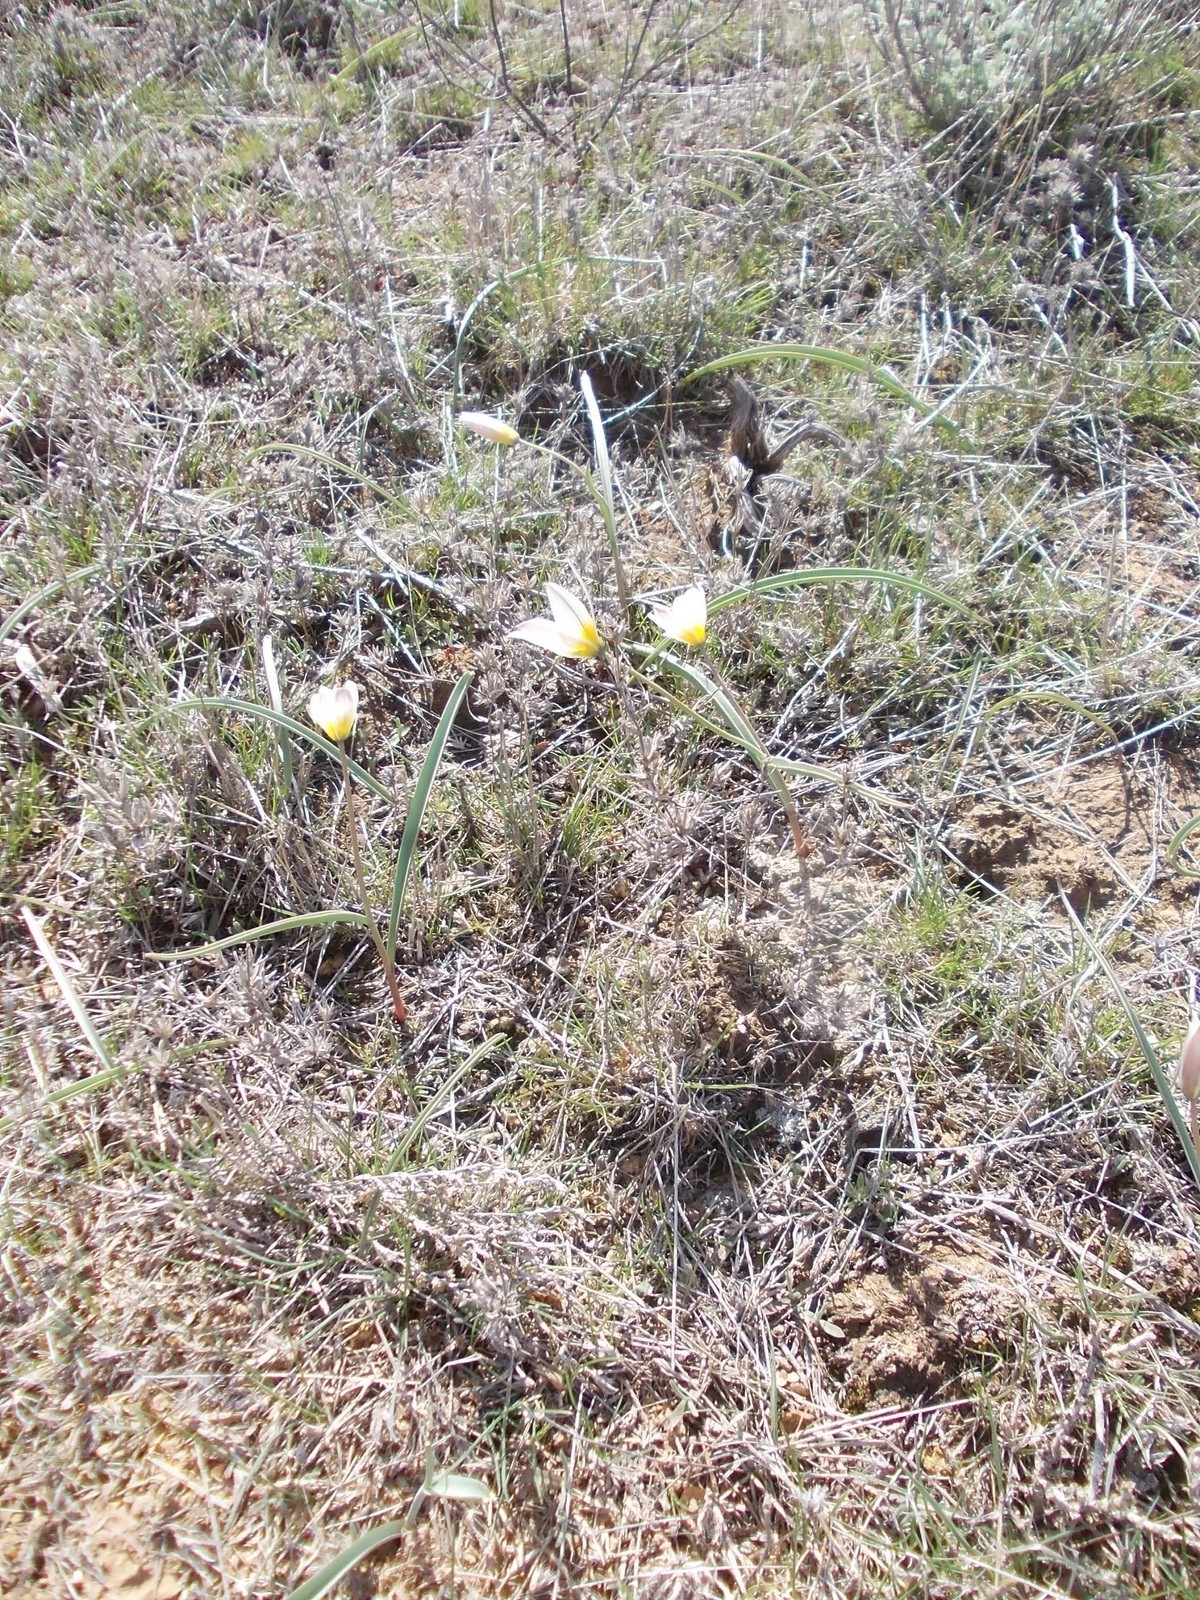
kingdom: Plantae
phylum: Tracheophyta
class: Liliopsida
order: Liliales
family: Liliaceae
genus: Tulipa
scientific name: Tulipa biflora
